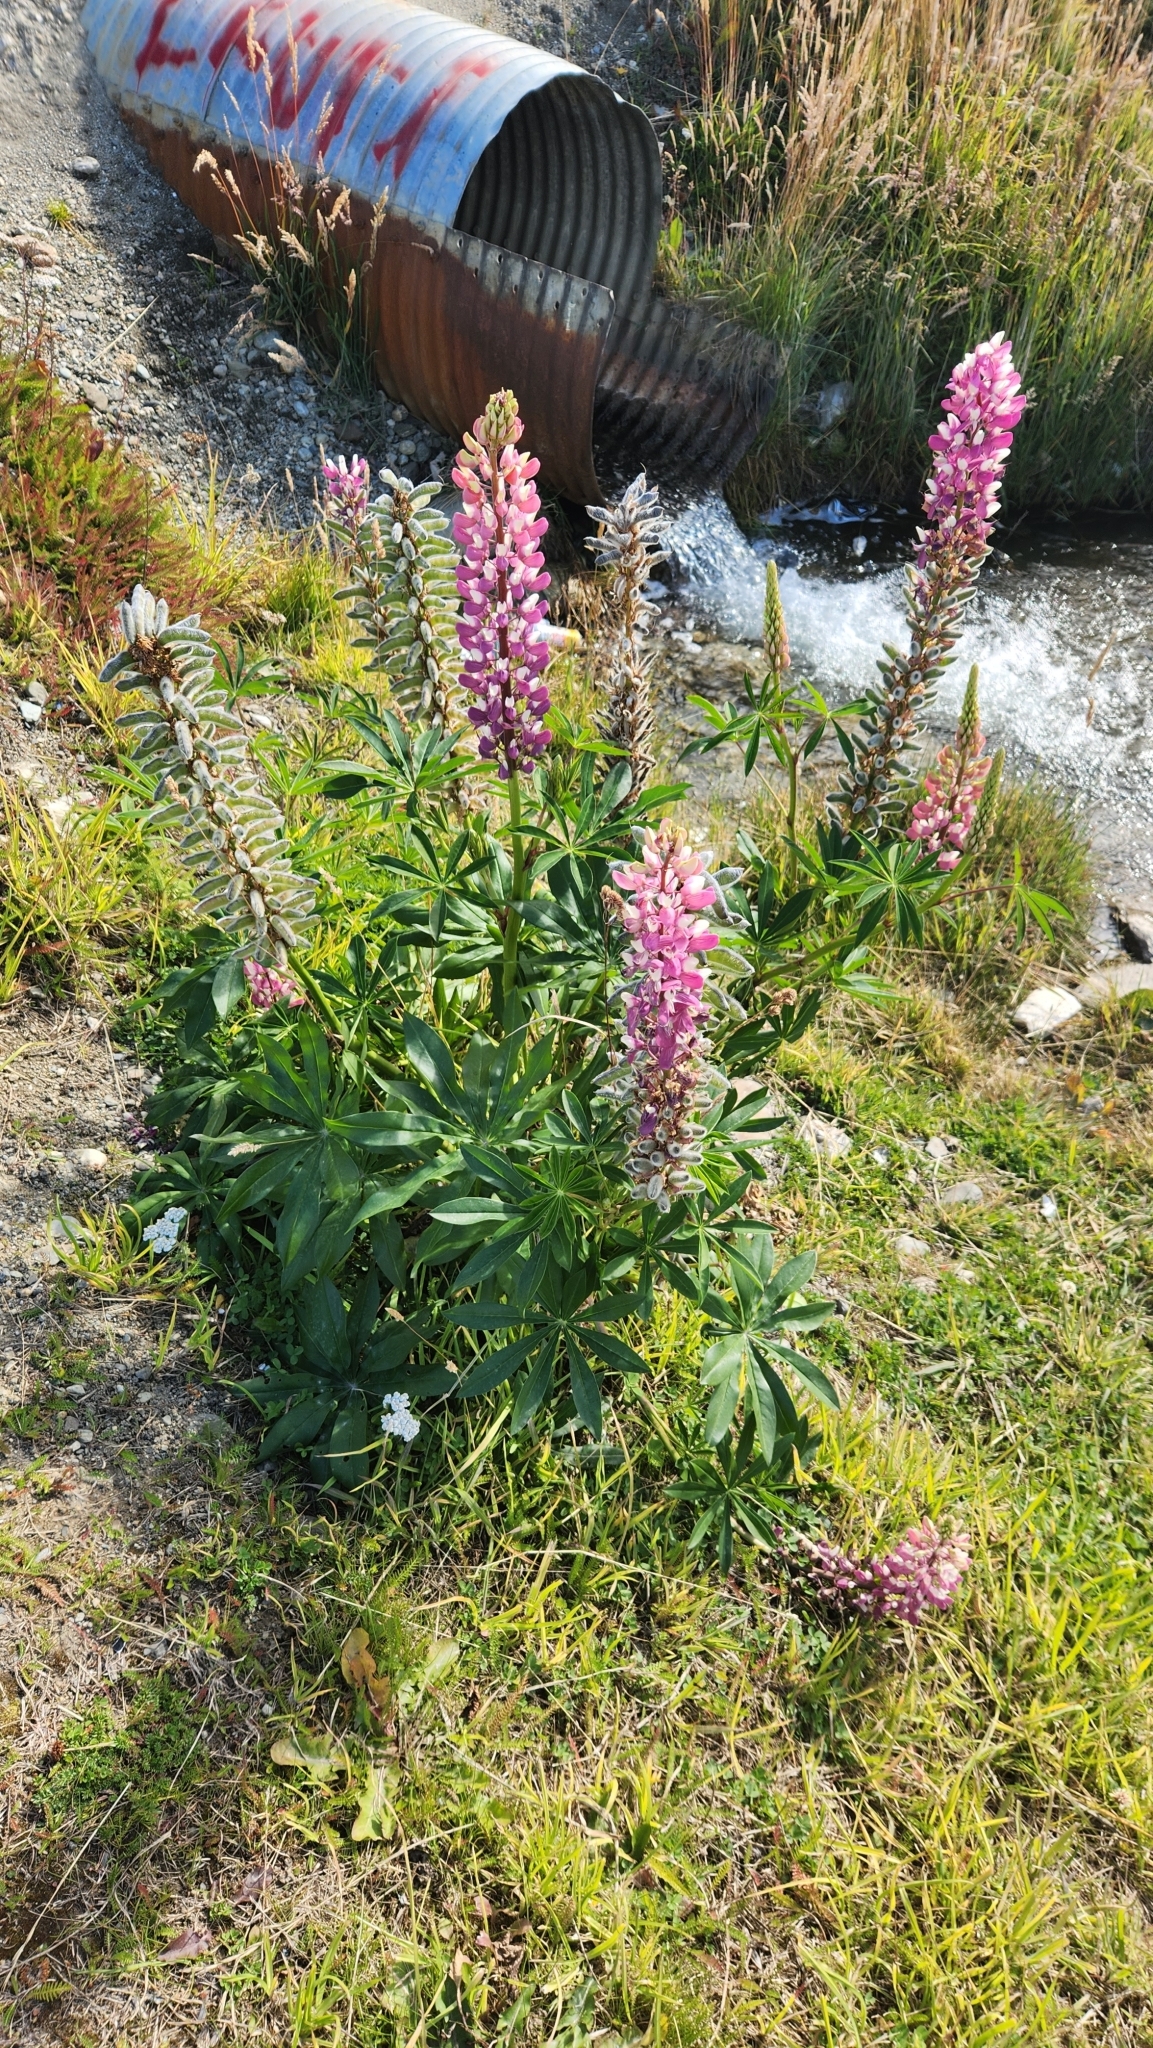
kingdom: Plantae
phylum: Tracheophyta
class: Magnoliopsida
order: Fabales
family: Fabaceae
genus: Lupinus
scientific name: Lupinus polyphyllus
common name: Garden lupin
